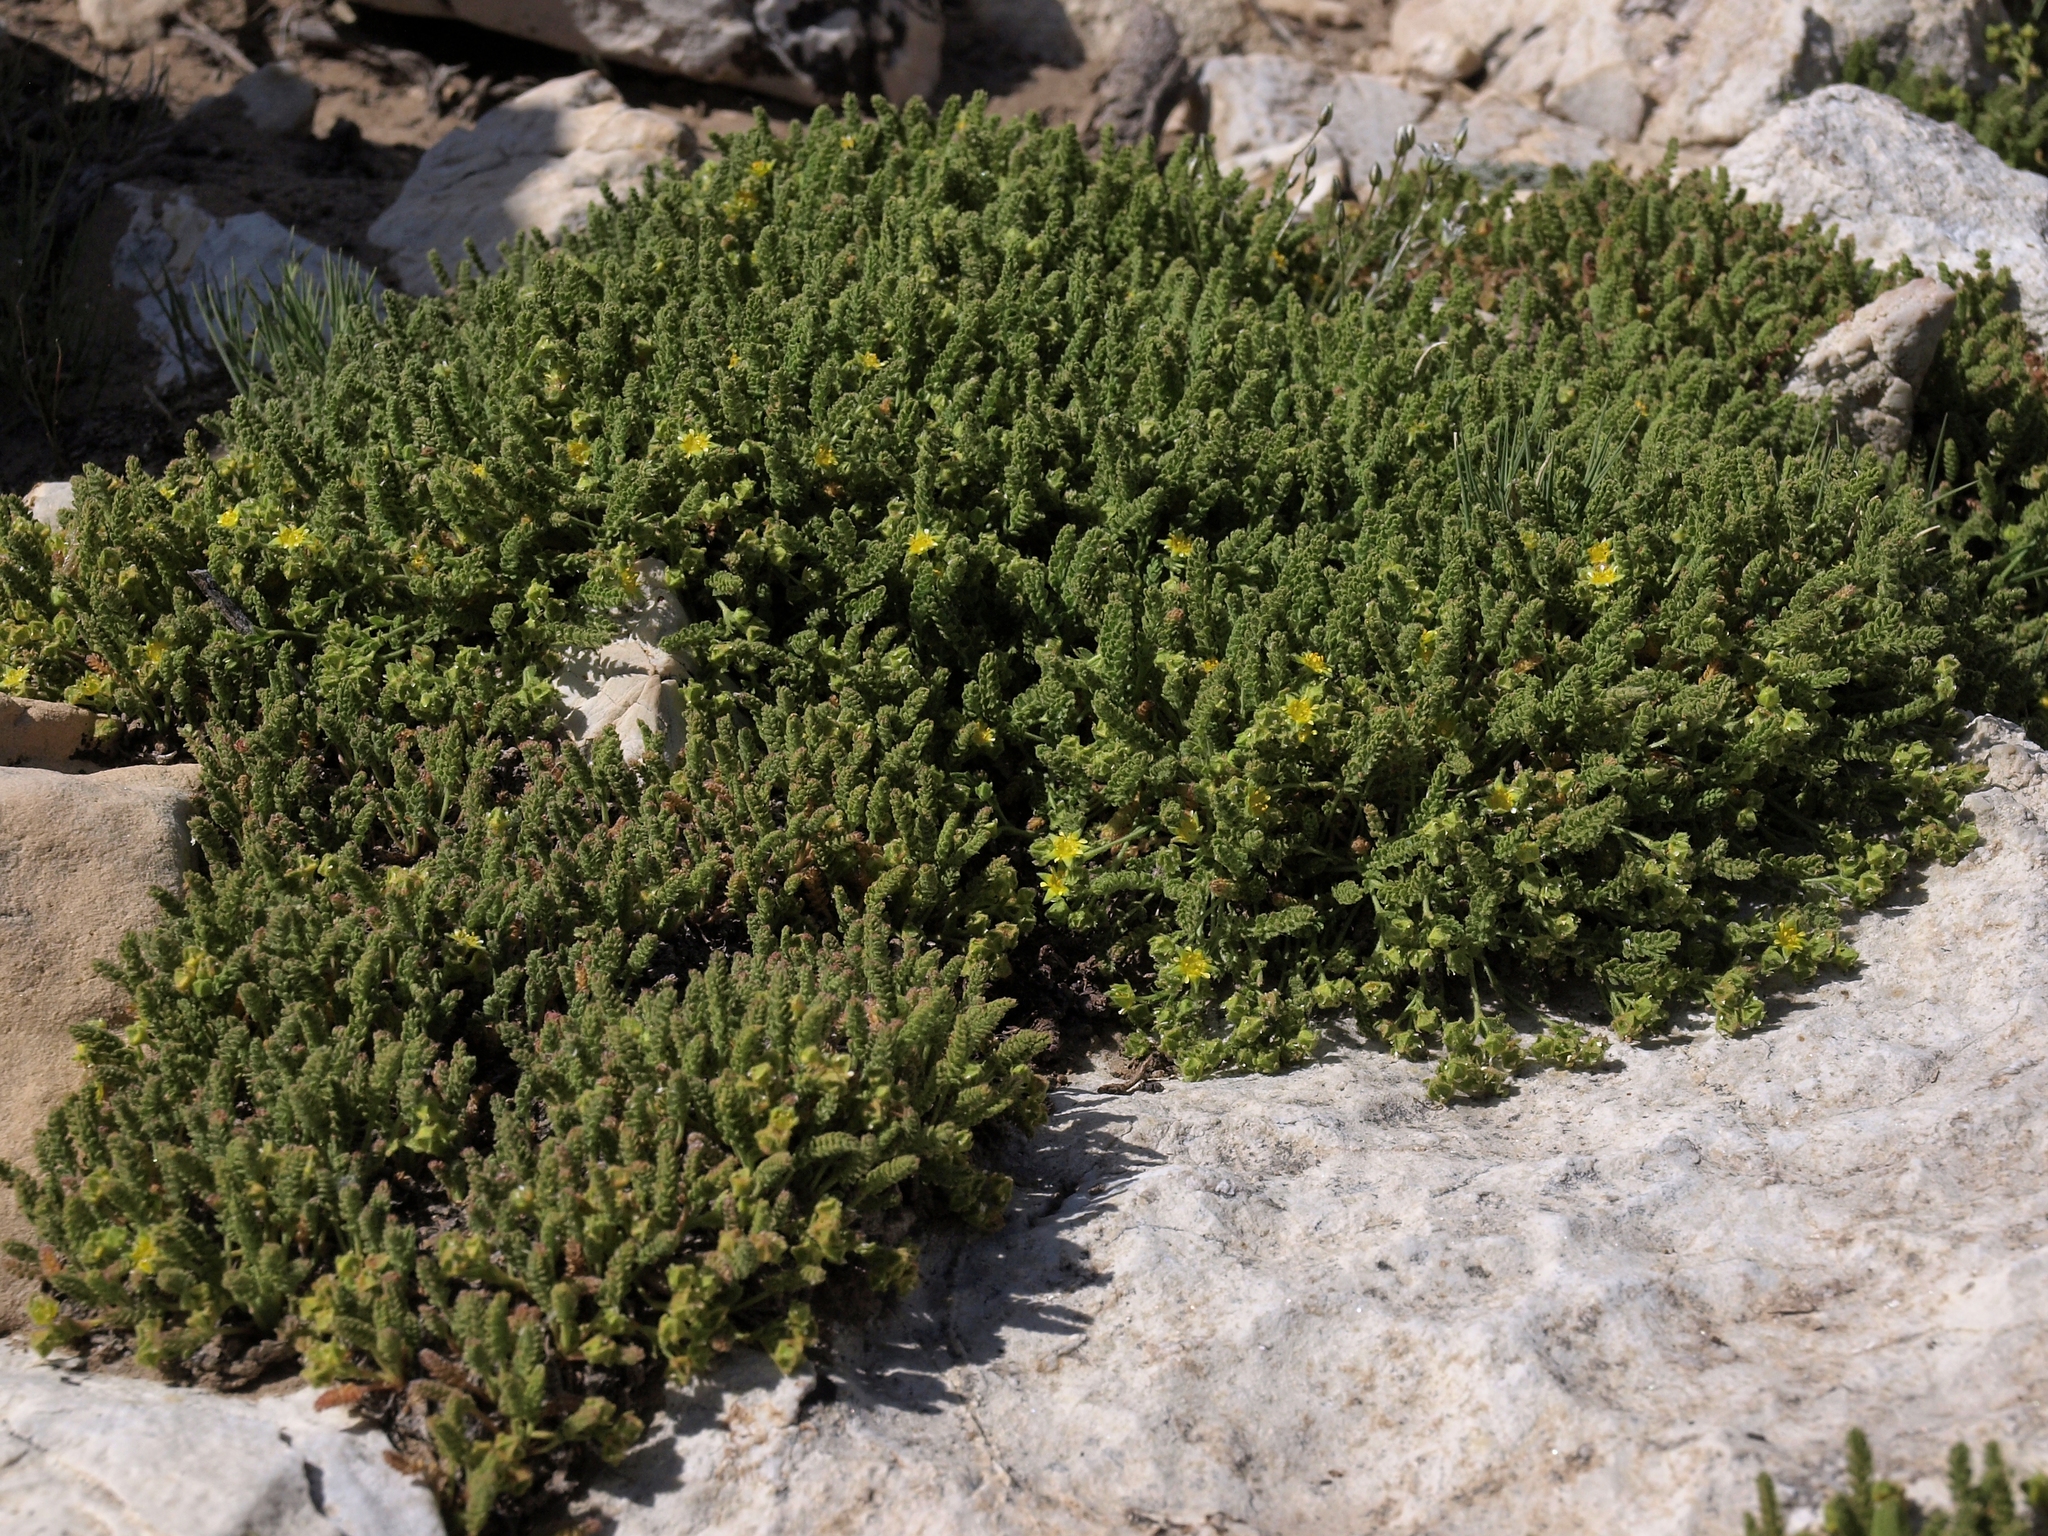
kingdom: Plantae
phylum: Tracheophyta
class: Magnoliopsida
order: Rosales
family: Rosaceae
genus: Potentilla
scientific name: Potentilla shockleyi
